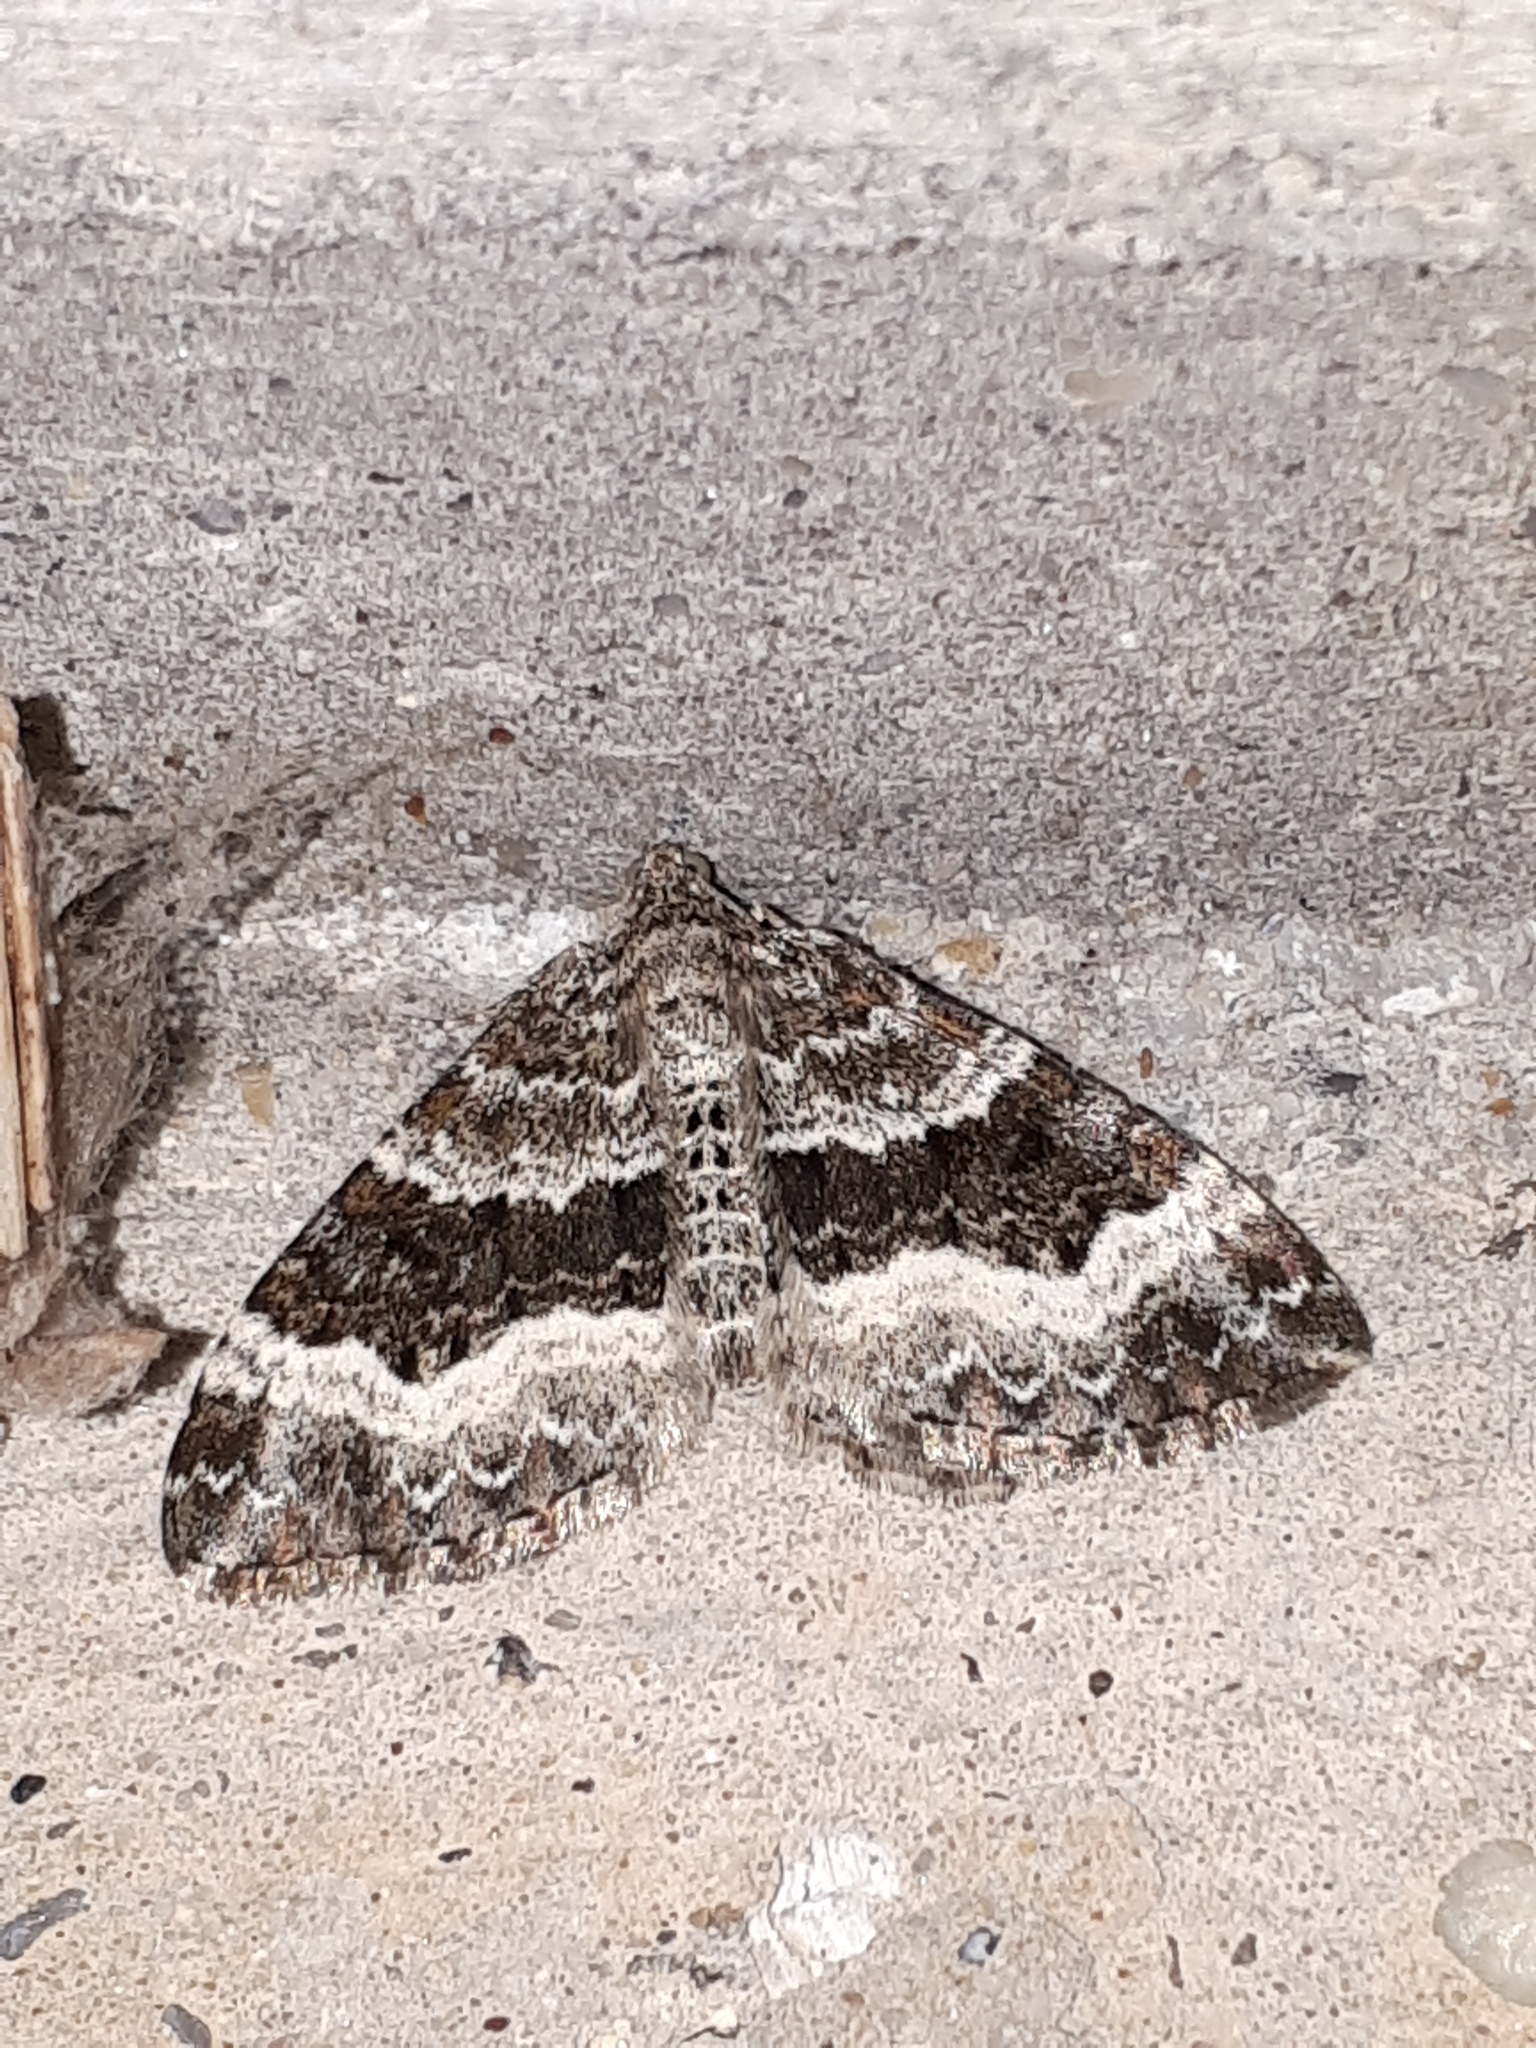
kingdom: Animalia
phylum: Arthropoda
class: Insecta
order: Lepidoptera
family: Geometridae
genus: Epirrhoe
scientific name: Epirrhoe alternata
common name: Common carpet
